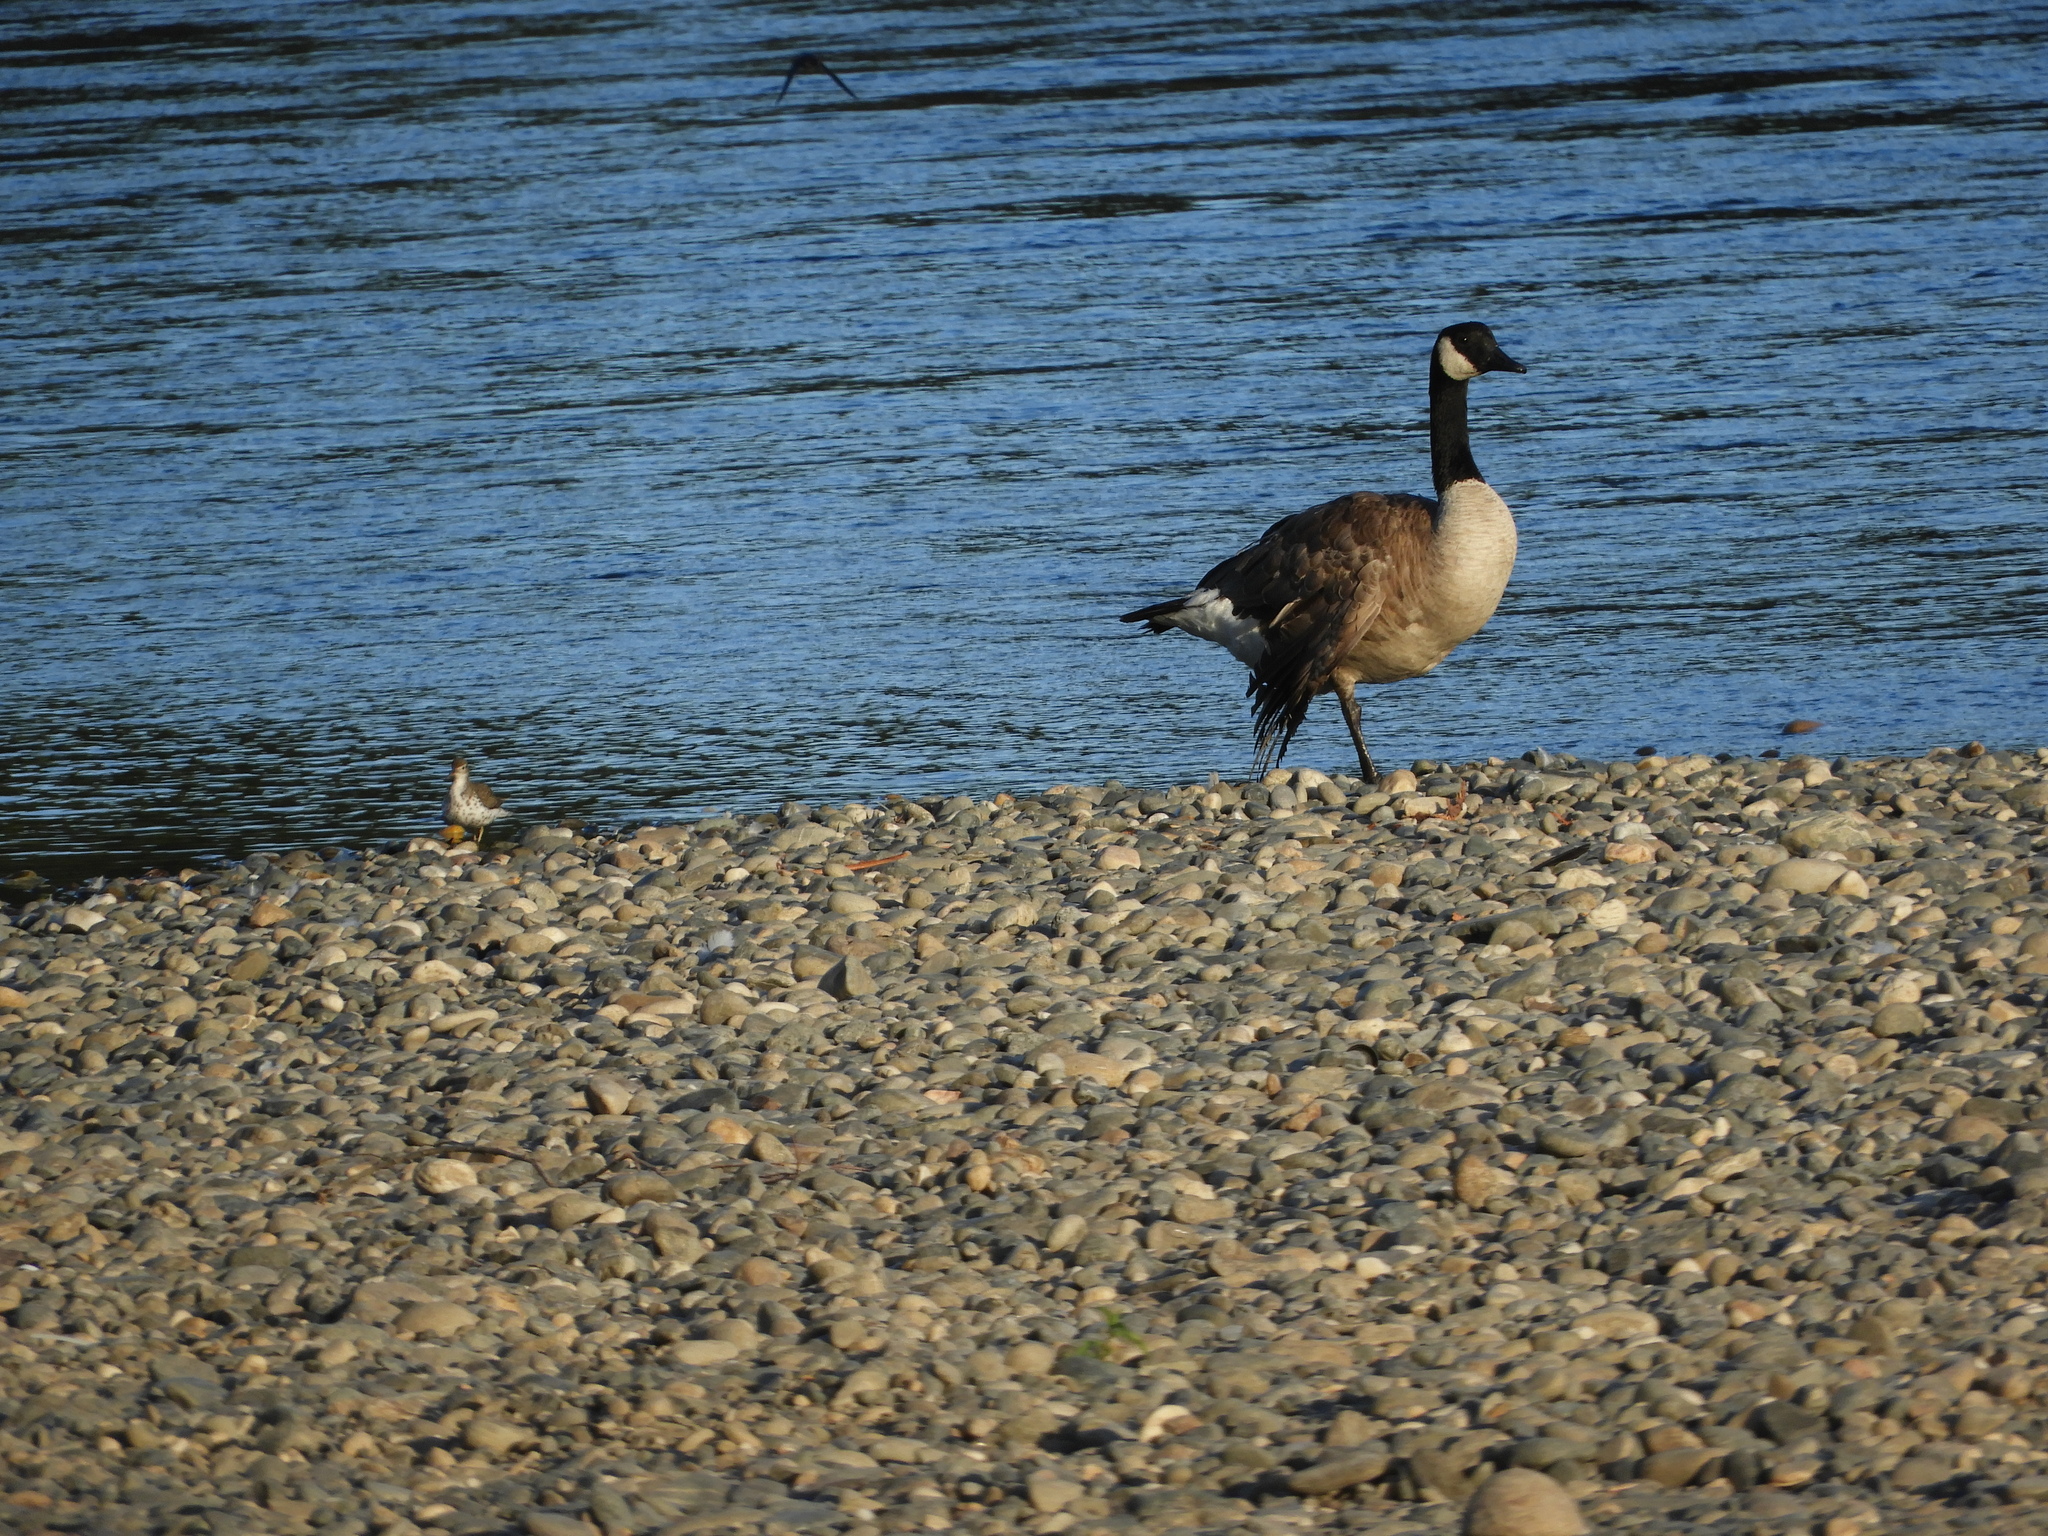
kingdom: Animalia
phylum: Chordata
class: Aves
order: Anseriformes
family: Anatidae
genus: Branta
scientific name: Branta canadensis
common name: Canada goose
